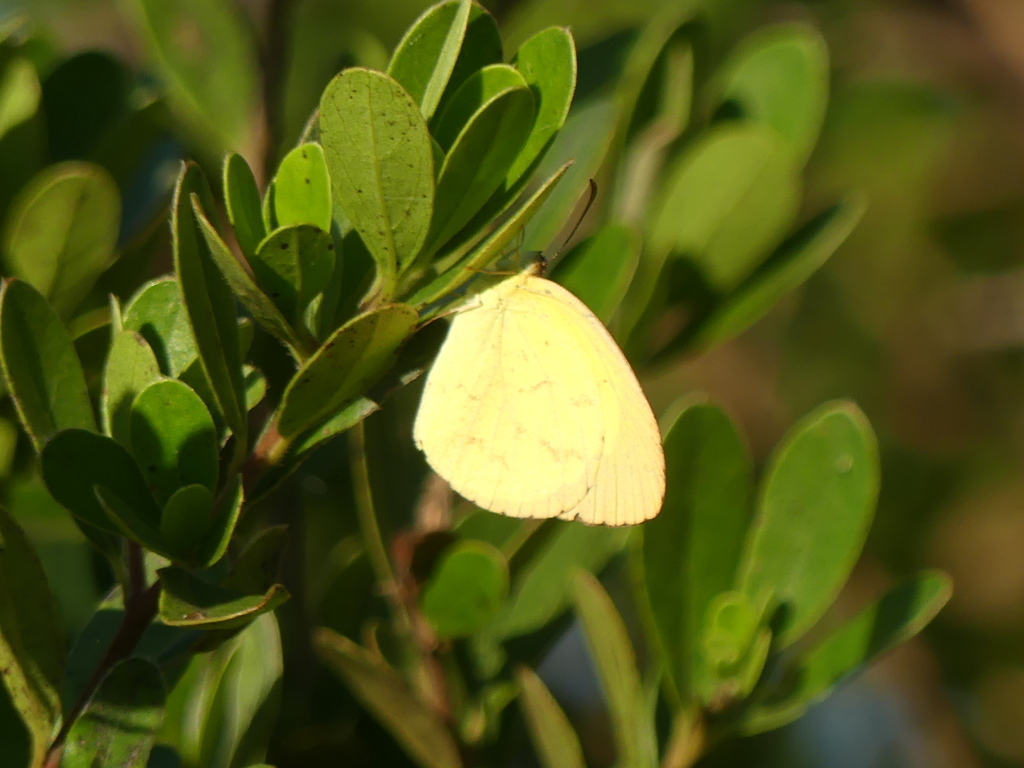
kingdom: Animalia
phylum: Arthropoda
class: Insecta
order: Lepidoptera
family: Pieridae
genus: Terias
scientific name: Terias
